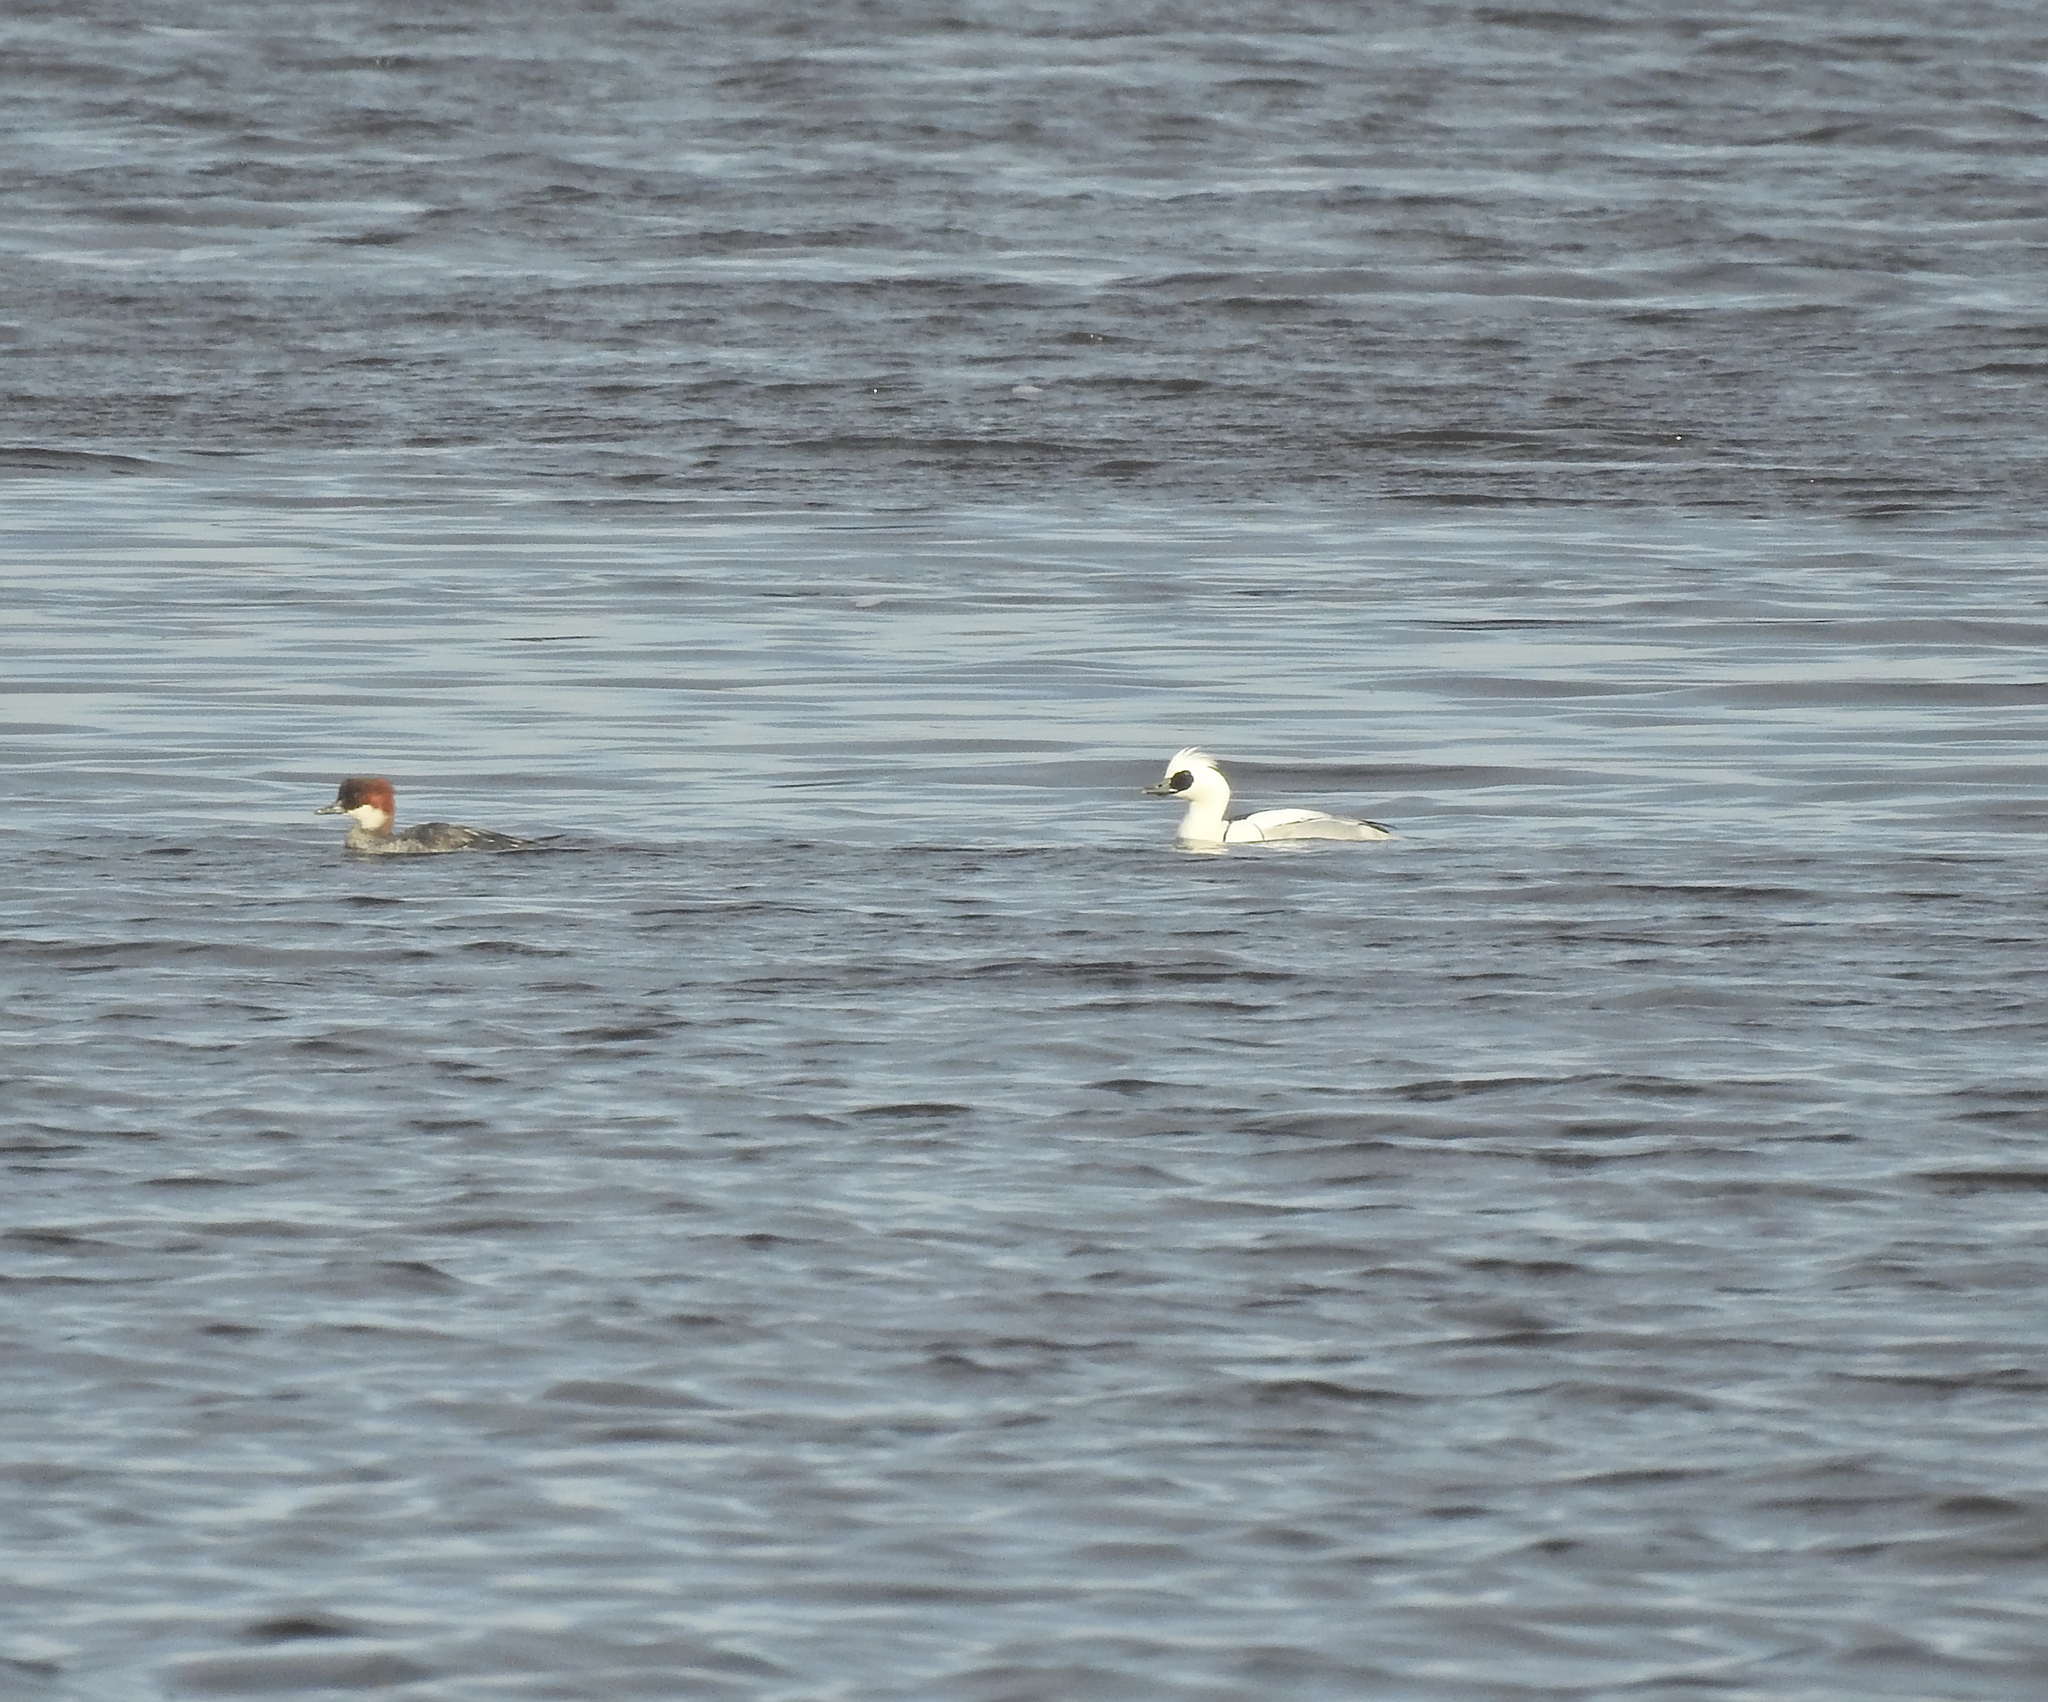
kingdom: Animalia
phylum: Chordata
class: Aves
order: Anseriformes
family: Anatidae
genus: Mergellus
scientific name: Mergellus albellus
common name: Smew
